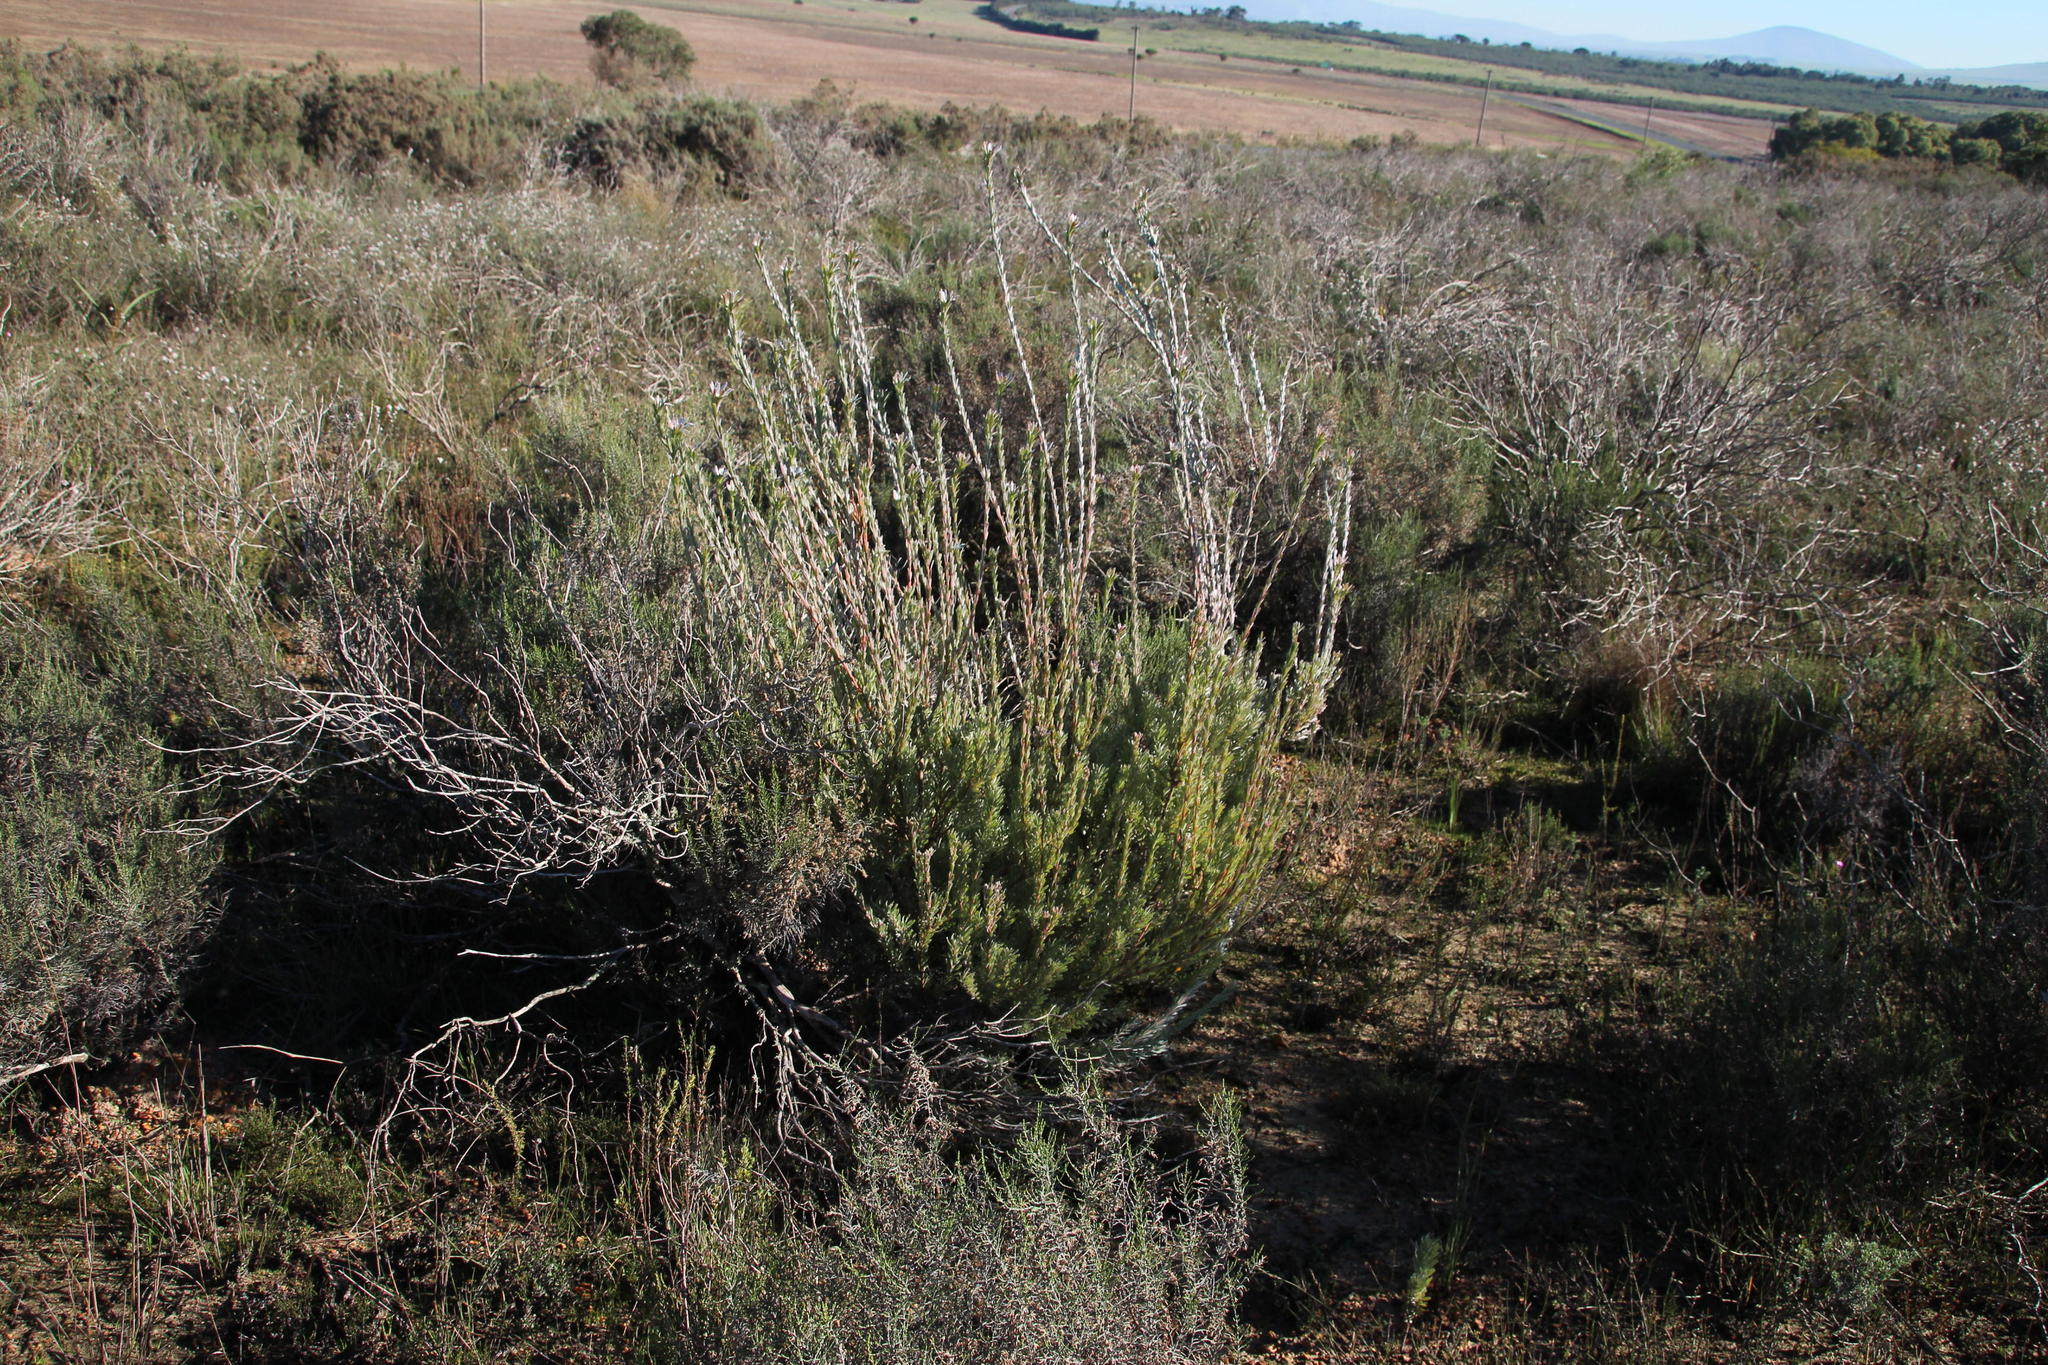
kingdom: Plantae
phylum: Tracheophyta
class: Magnoliopsida
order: Proteales
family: Proteaceae
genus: Leucadendron
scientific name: Leucadendron verticillatum
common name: Klapmuts conebush
